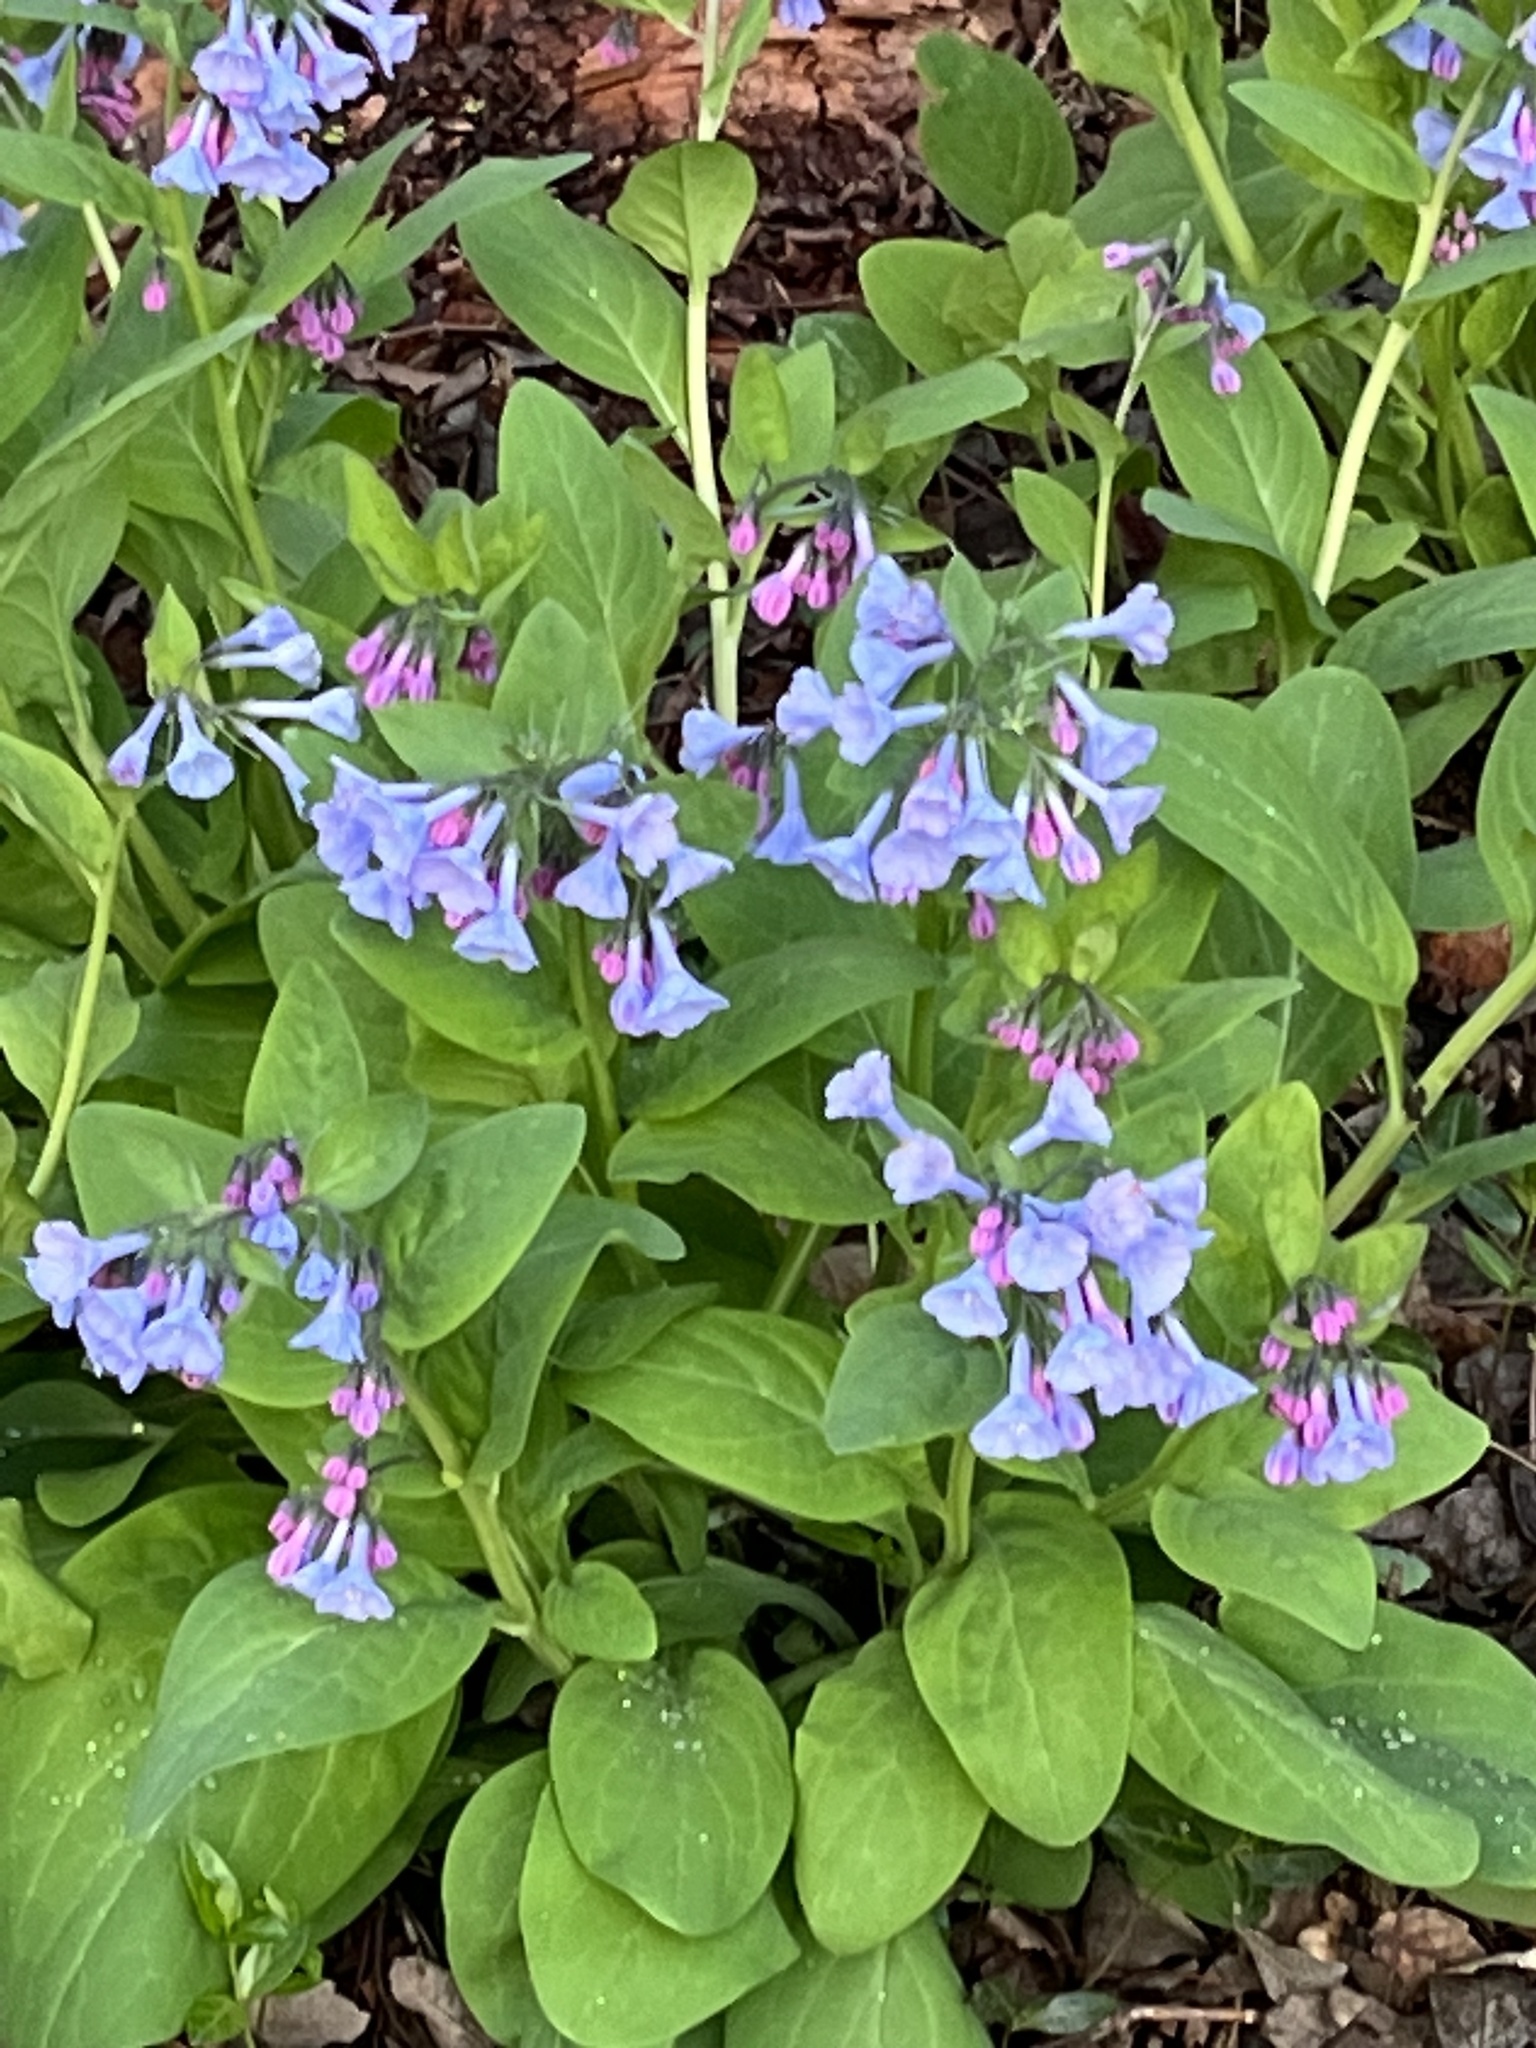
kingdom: Plantae
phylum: Tracheophyta
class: Magnoliopsida
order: Boraginales
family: Boraginaceae
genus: Mertensia
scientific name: Mertensia virginica
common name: Virginia bluebells
